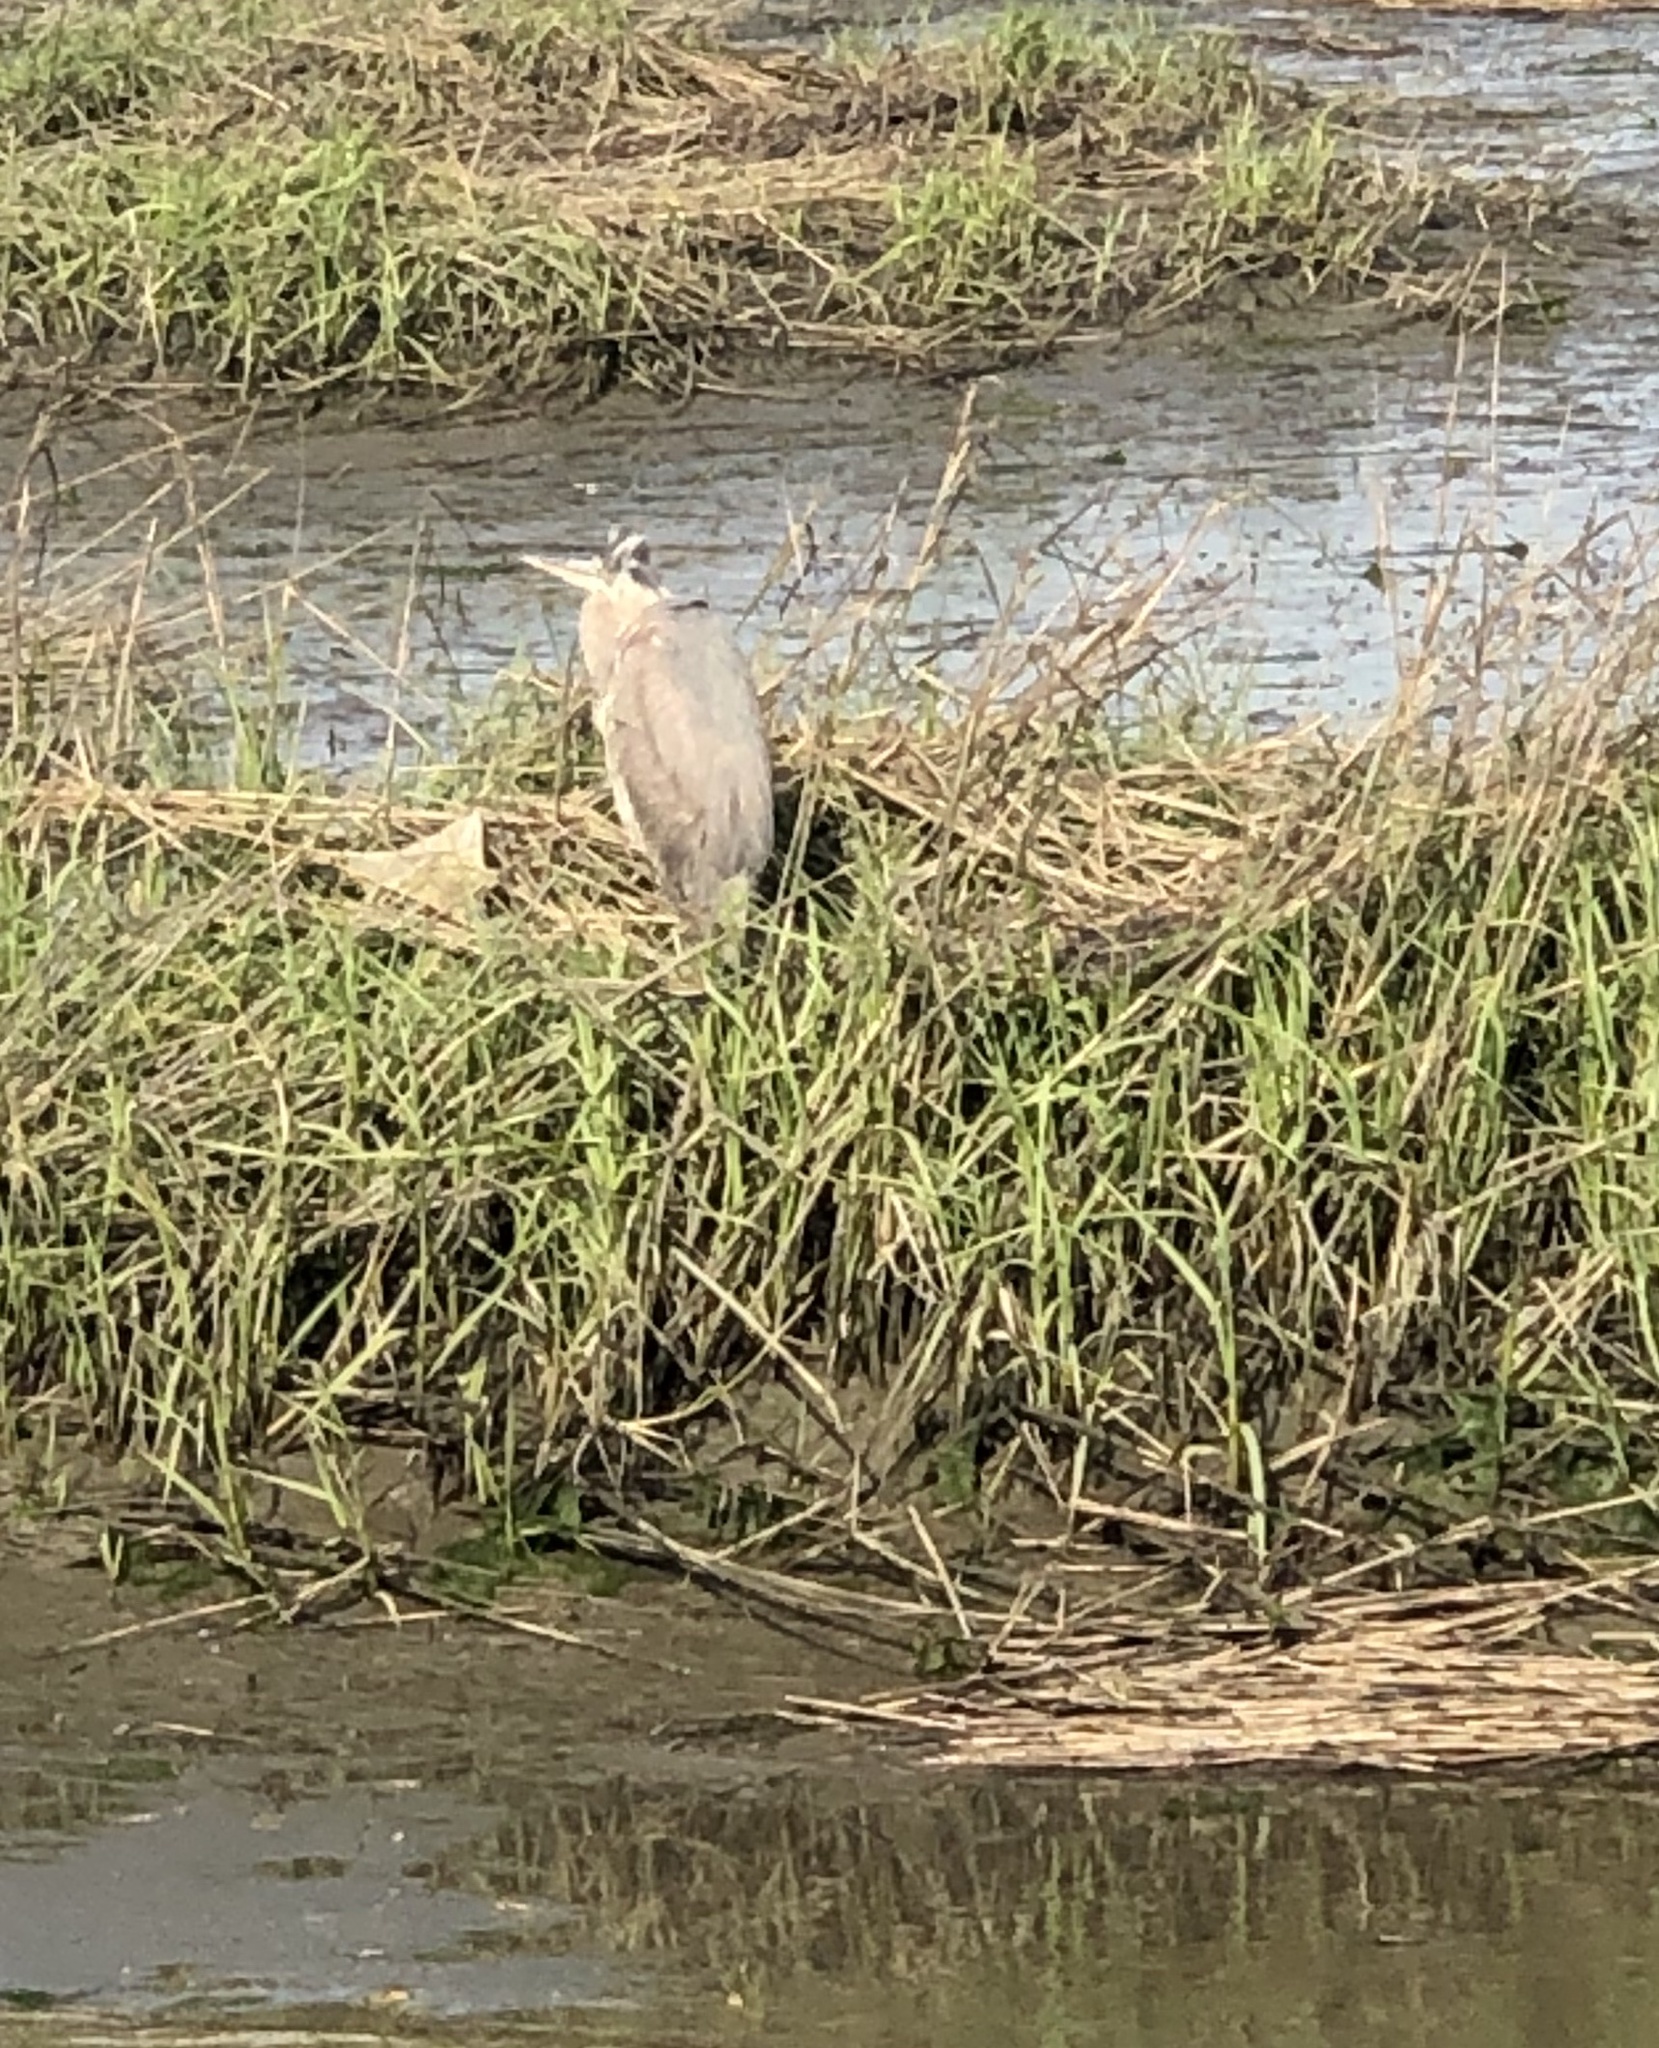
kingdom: Animalia
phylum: Chordata
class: Aves
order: Pelecaniformes
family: Ardeidae
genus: Ardea
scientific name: Ardea herodias
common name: Great blue heron
